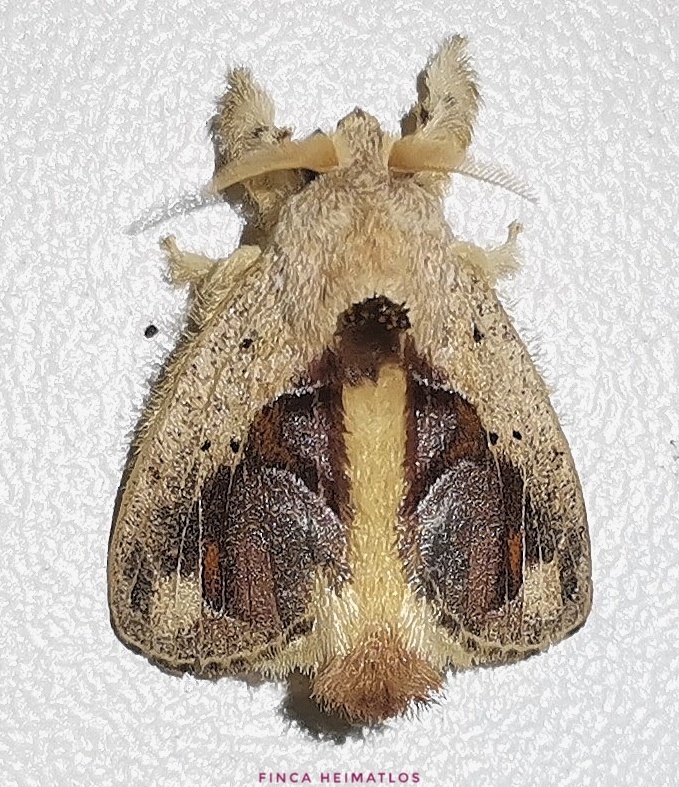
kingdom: Animalia
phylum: Arthropoda
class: Insecta
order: Lepidoptera
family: Lasiocampidae
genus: Nesara
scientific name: Nesara
